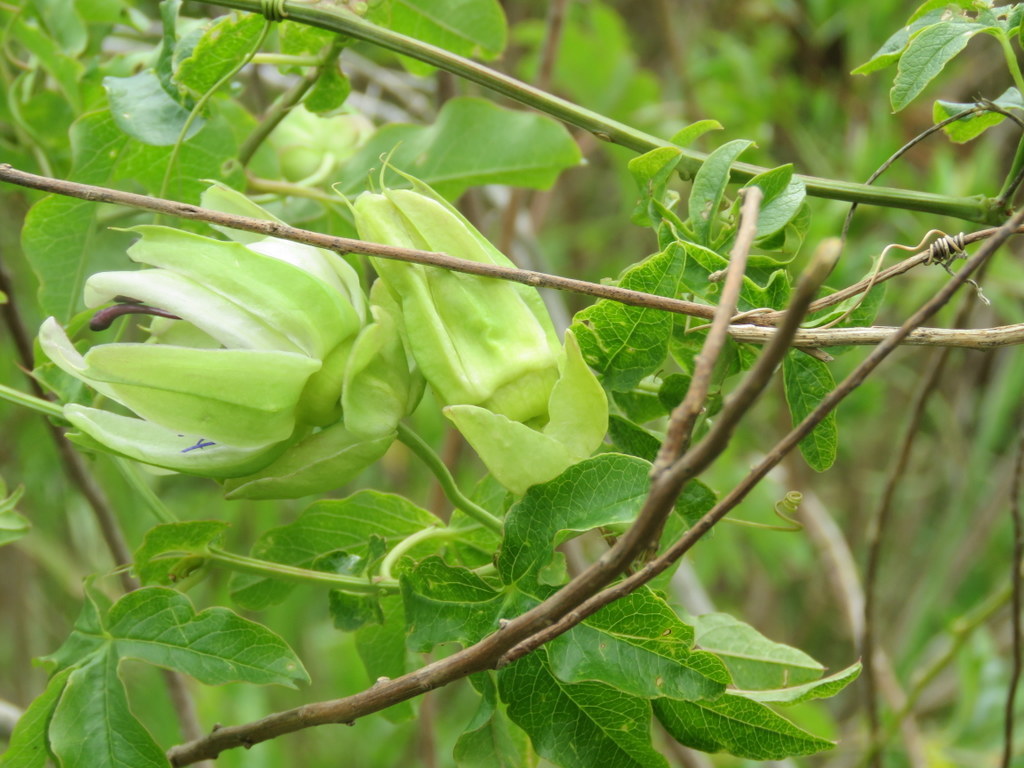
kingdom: Plantae
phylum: Tracheophyta
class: Magnoliopsida
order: Malpighiales
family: Passifloraceae
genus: Passiflora
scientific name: Passiflora caerulea
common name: Blue passionflower
